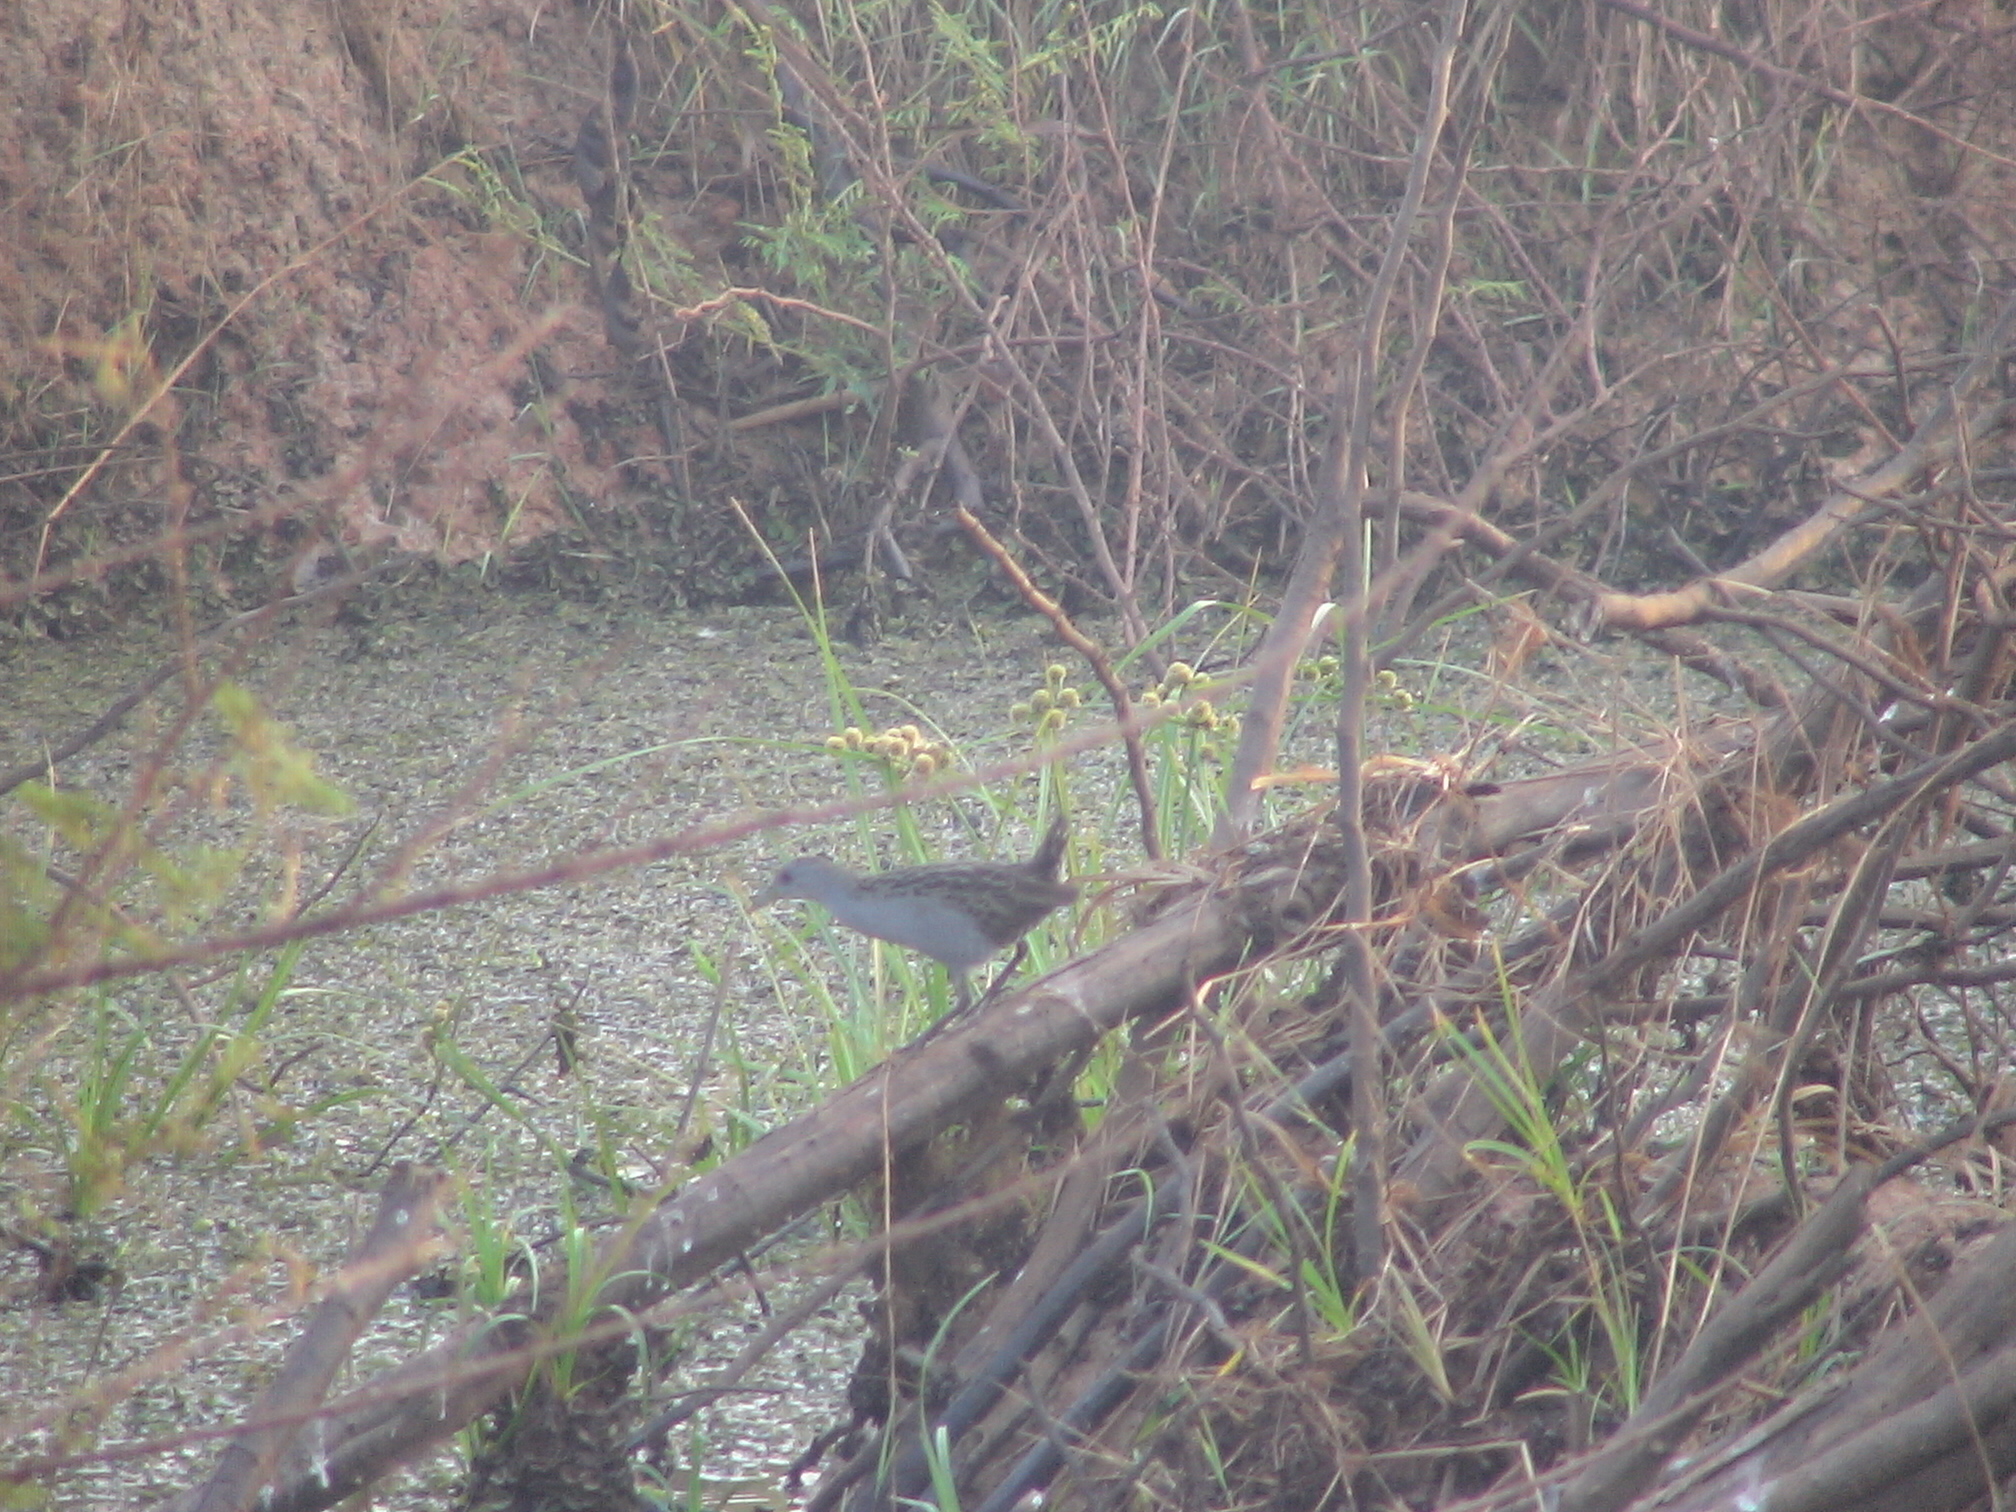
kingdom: Animalia
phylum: Chordata
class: Aves
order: Gruiformes
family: Rallidae
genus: Porzana
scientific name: Porzana albicollis
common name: Ash-throated crake
